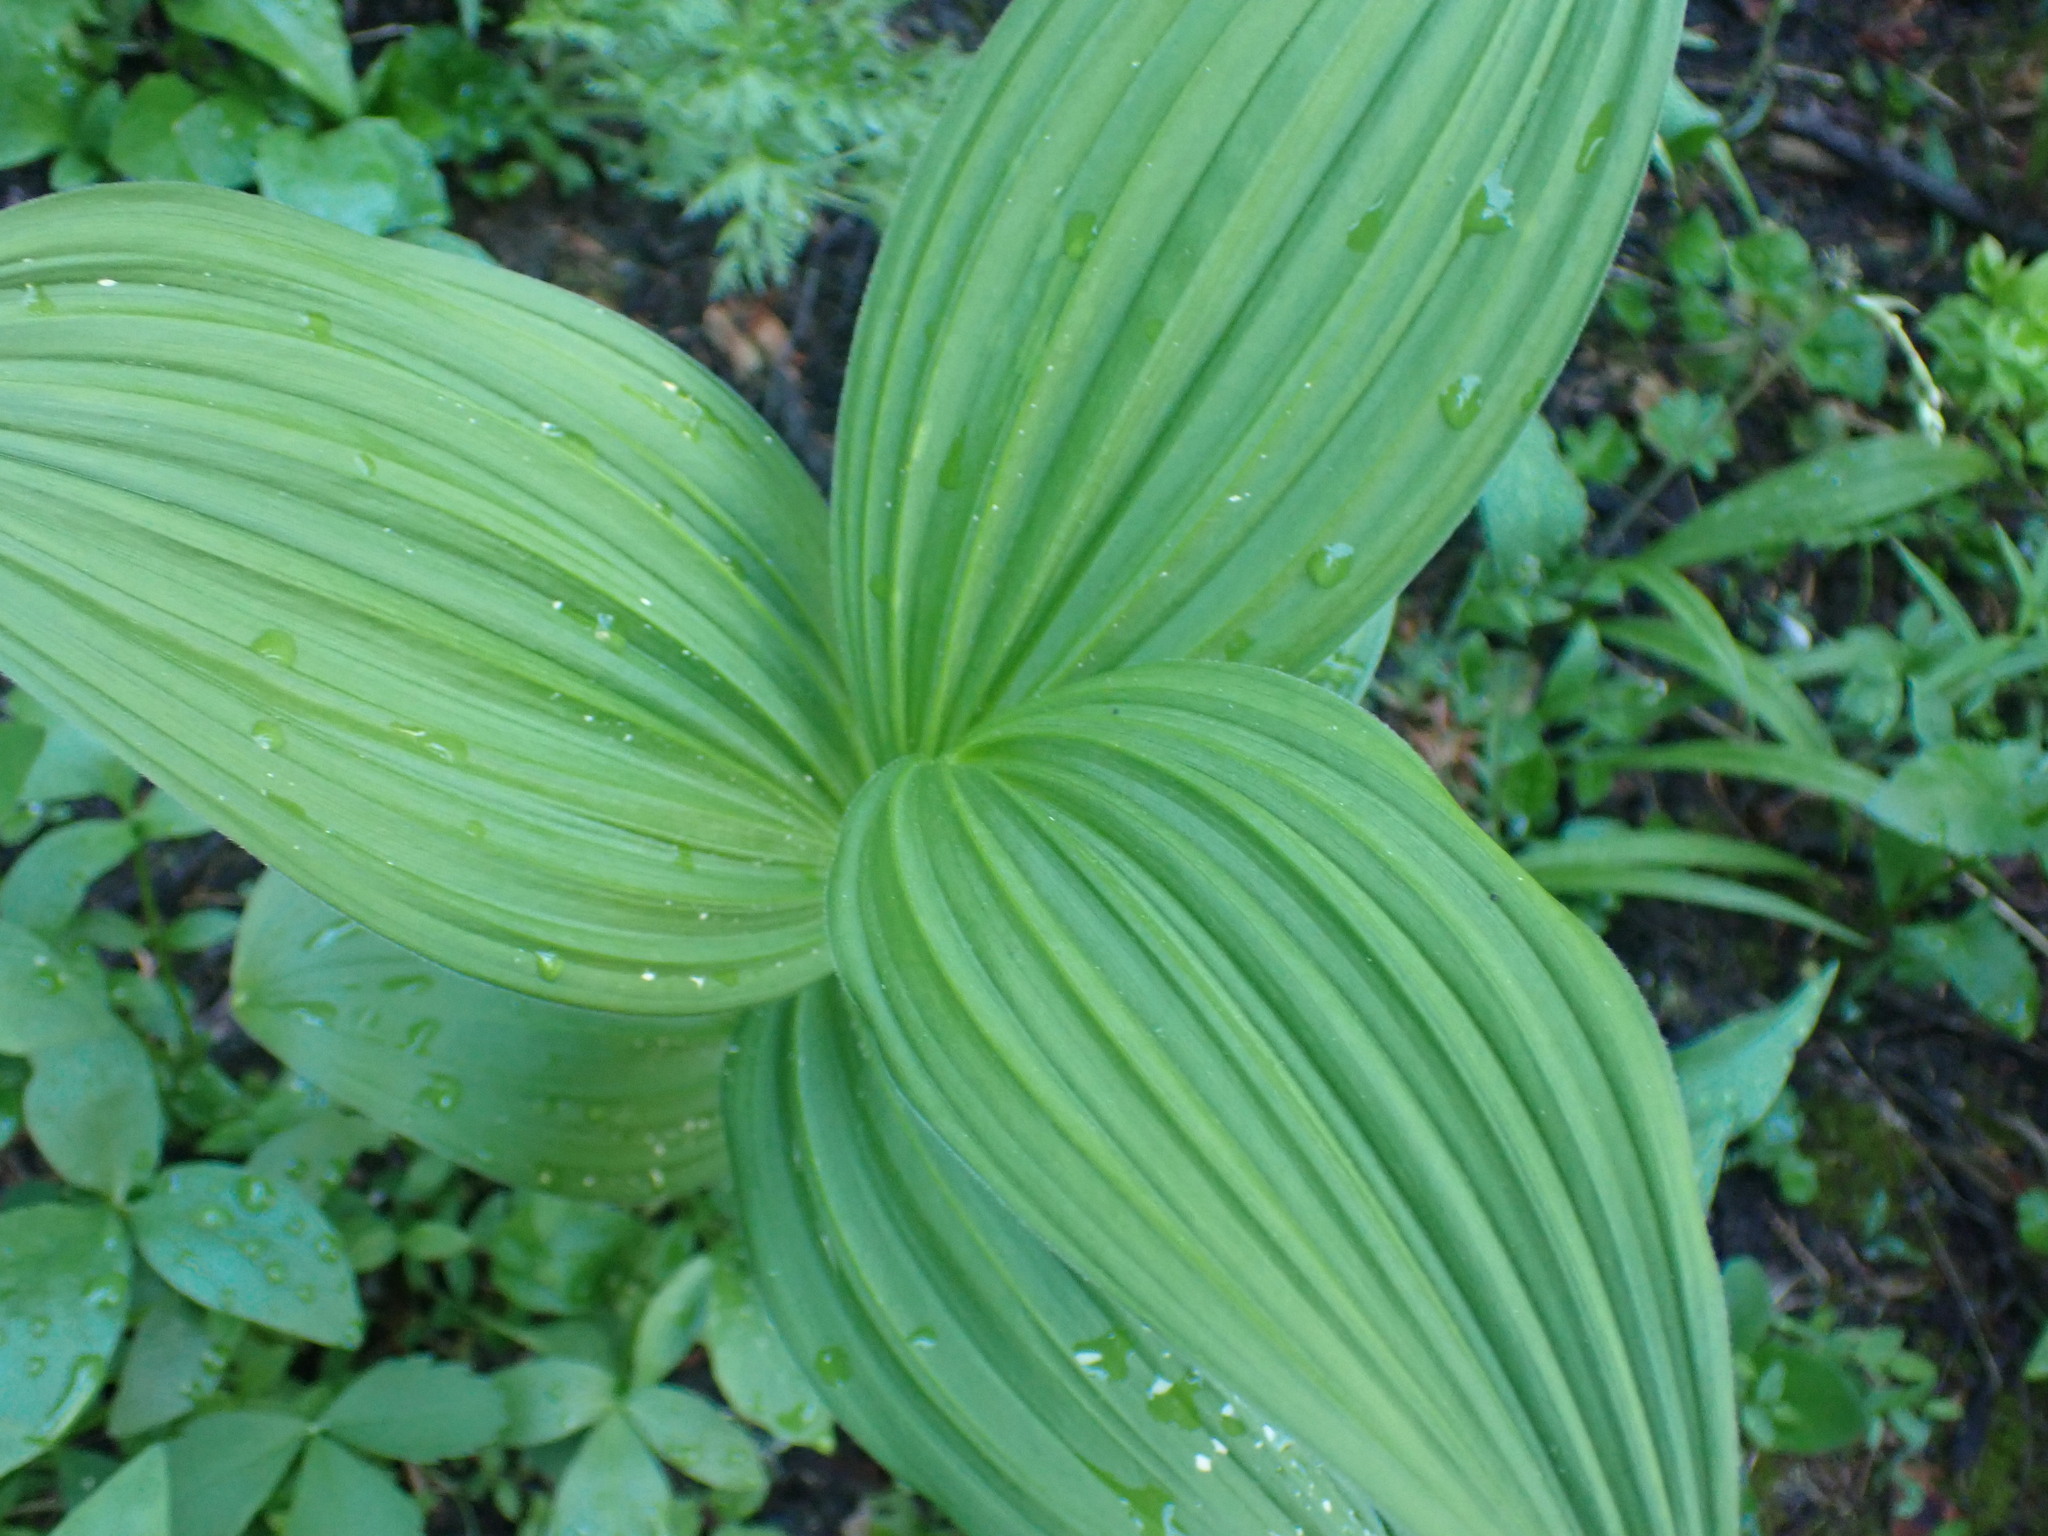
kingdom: Plantae
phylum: Tracheophyta
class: Liliopsida
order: Liliales
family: Melanthiaceae
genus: Veratrum
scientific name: Veratrum viride
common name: American false hellebore
